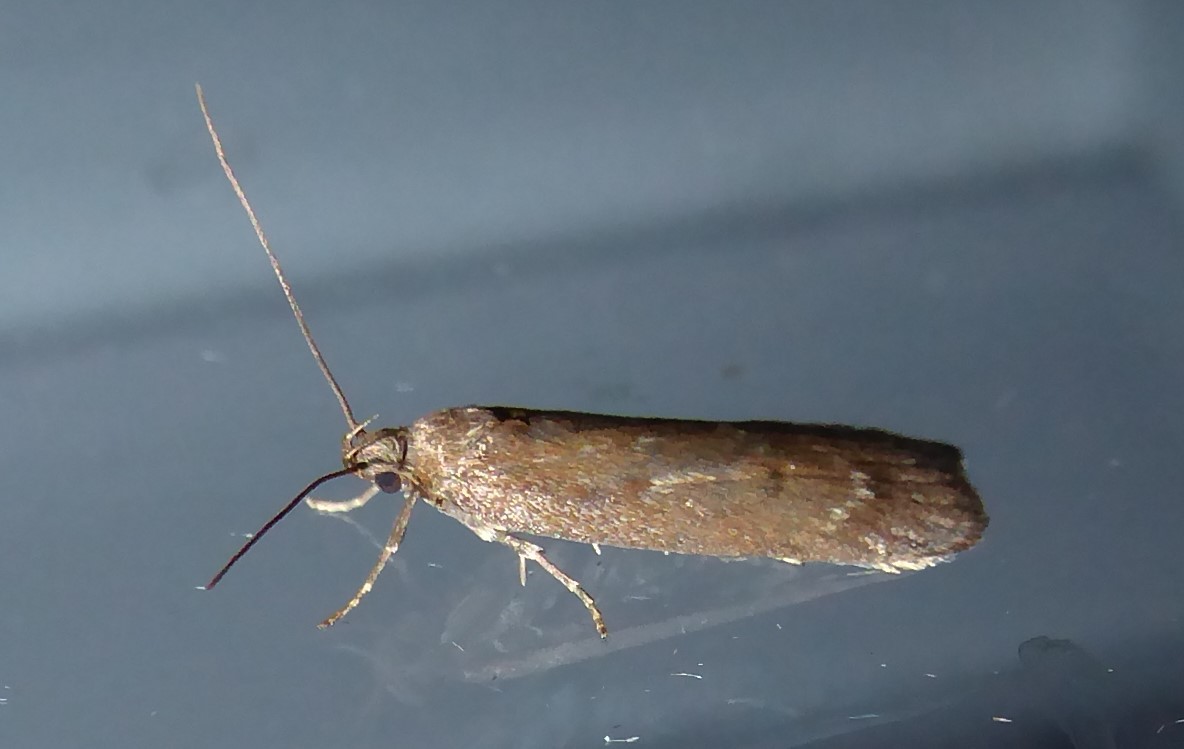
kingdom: Animalia
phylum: Arthropoda
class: Insecta
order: Lepidoptera
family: Depressariidae
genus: Phaeosaces
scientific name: Phaeosaces apocrypta
